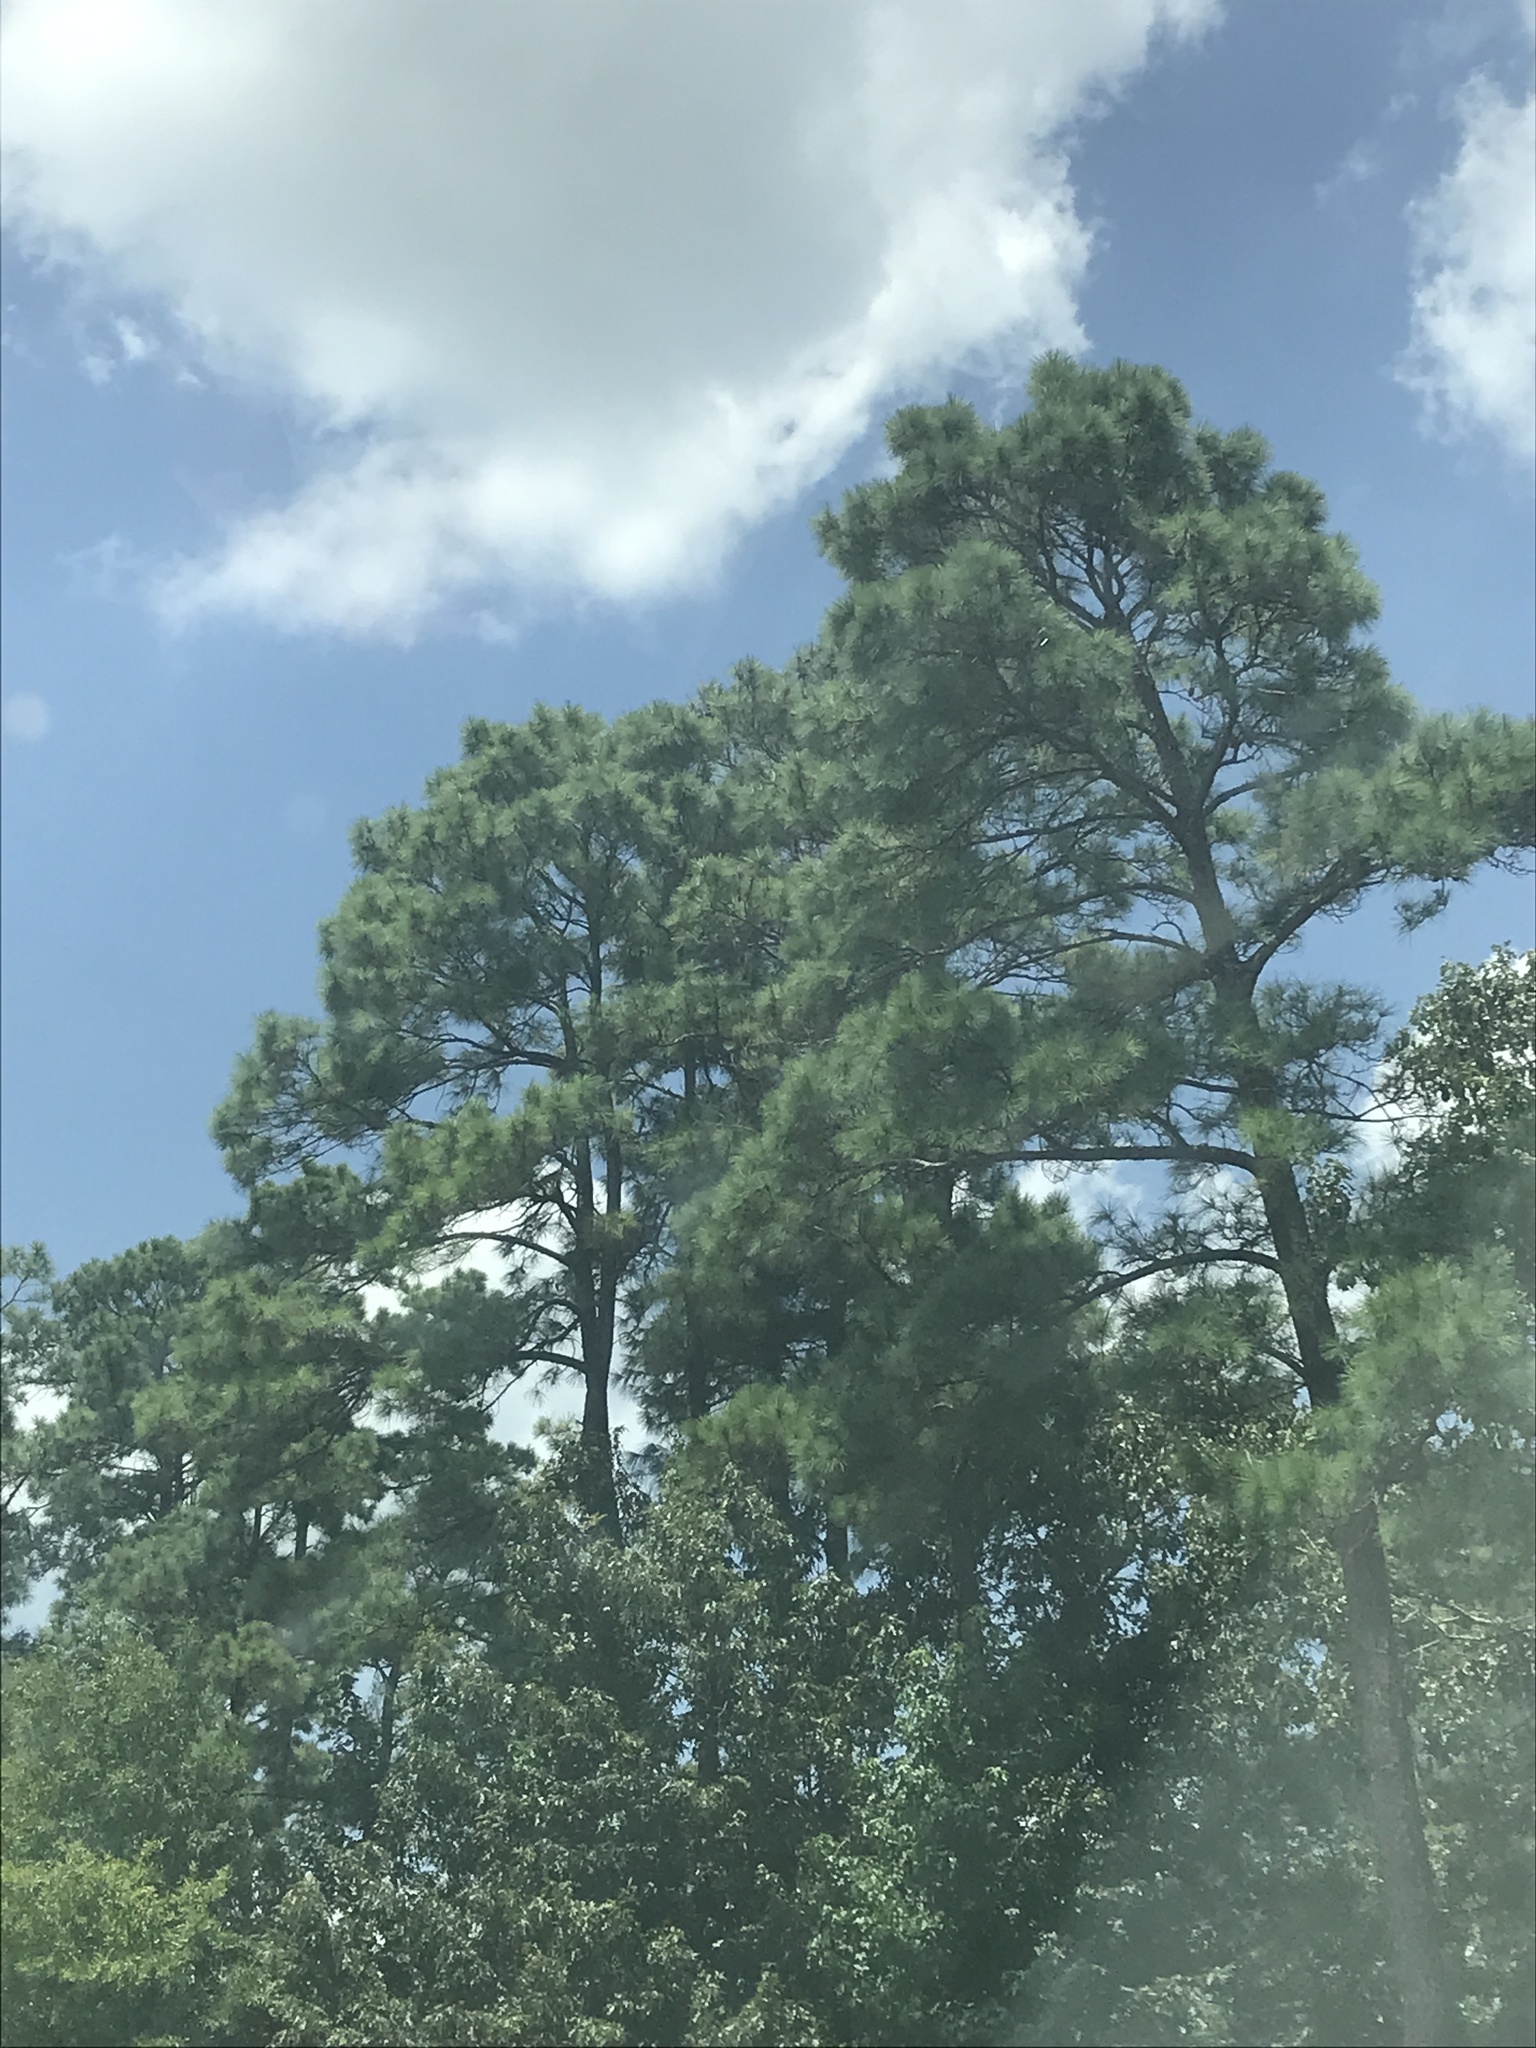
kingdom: Plantae
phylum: Tracheophyta
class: Pinopsida
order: Pinales
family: Pinaceae
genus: Pinus
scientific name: Pinus taeda
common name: Loblolly pine
